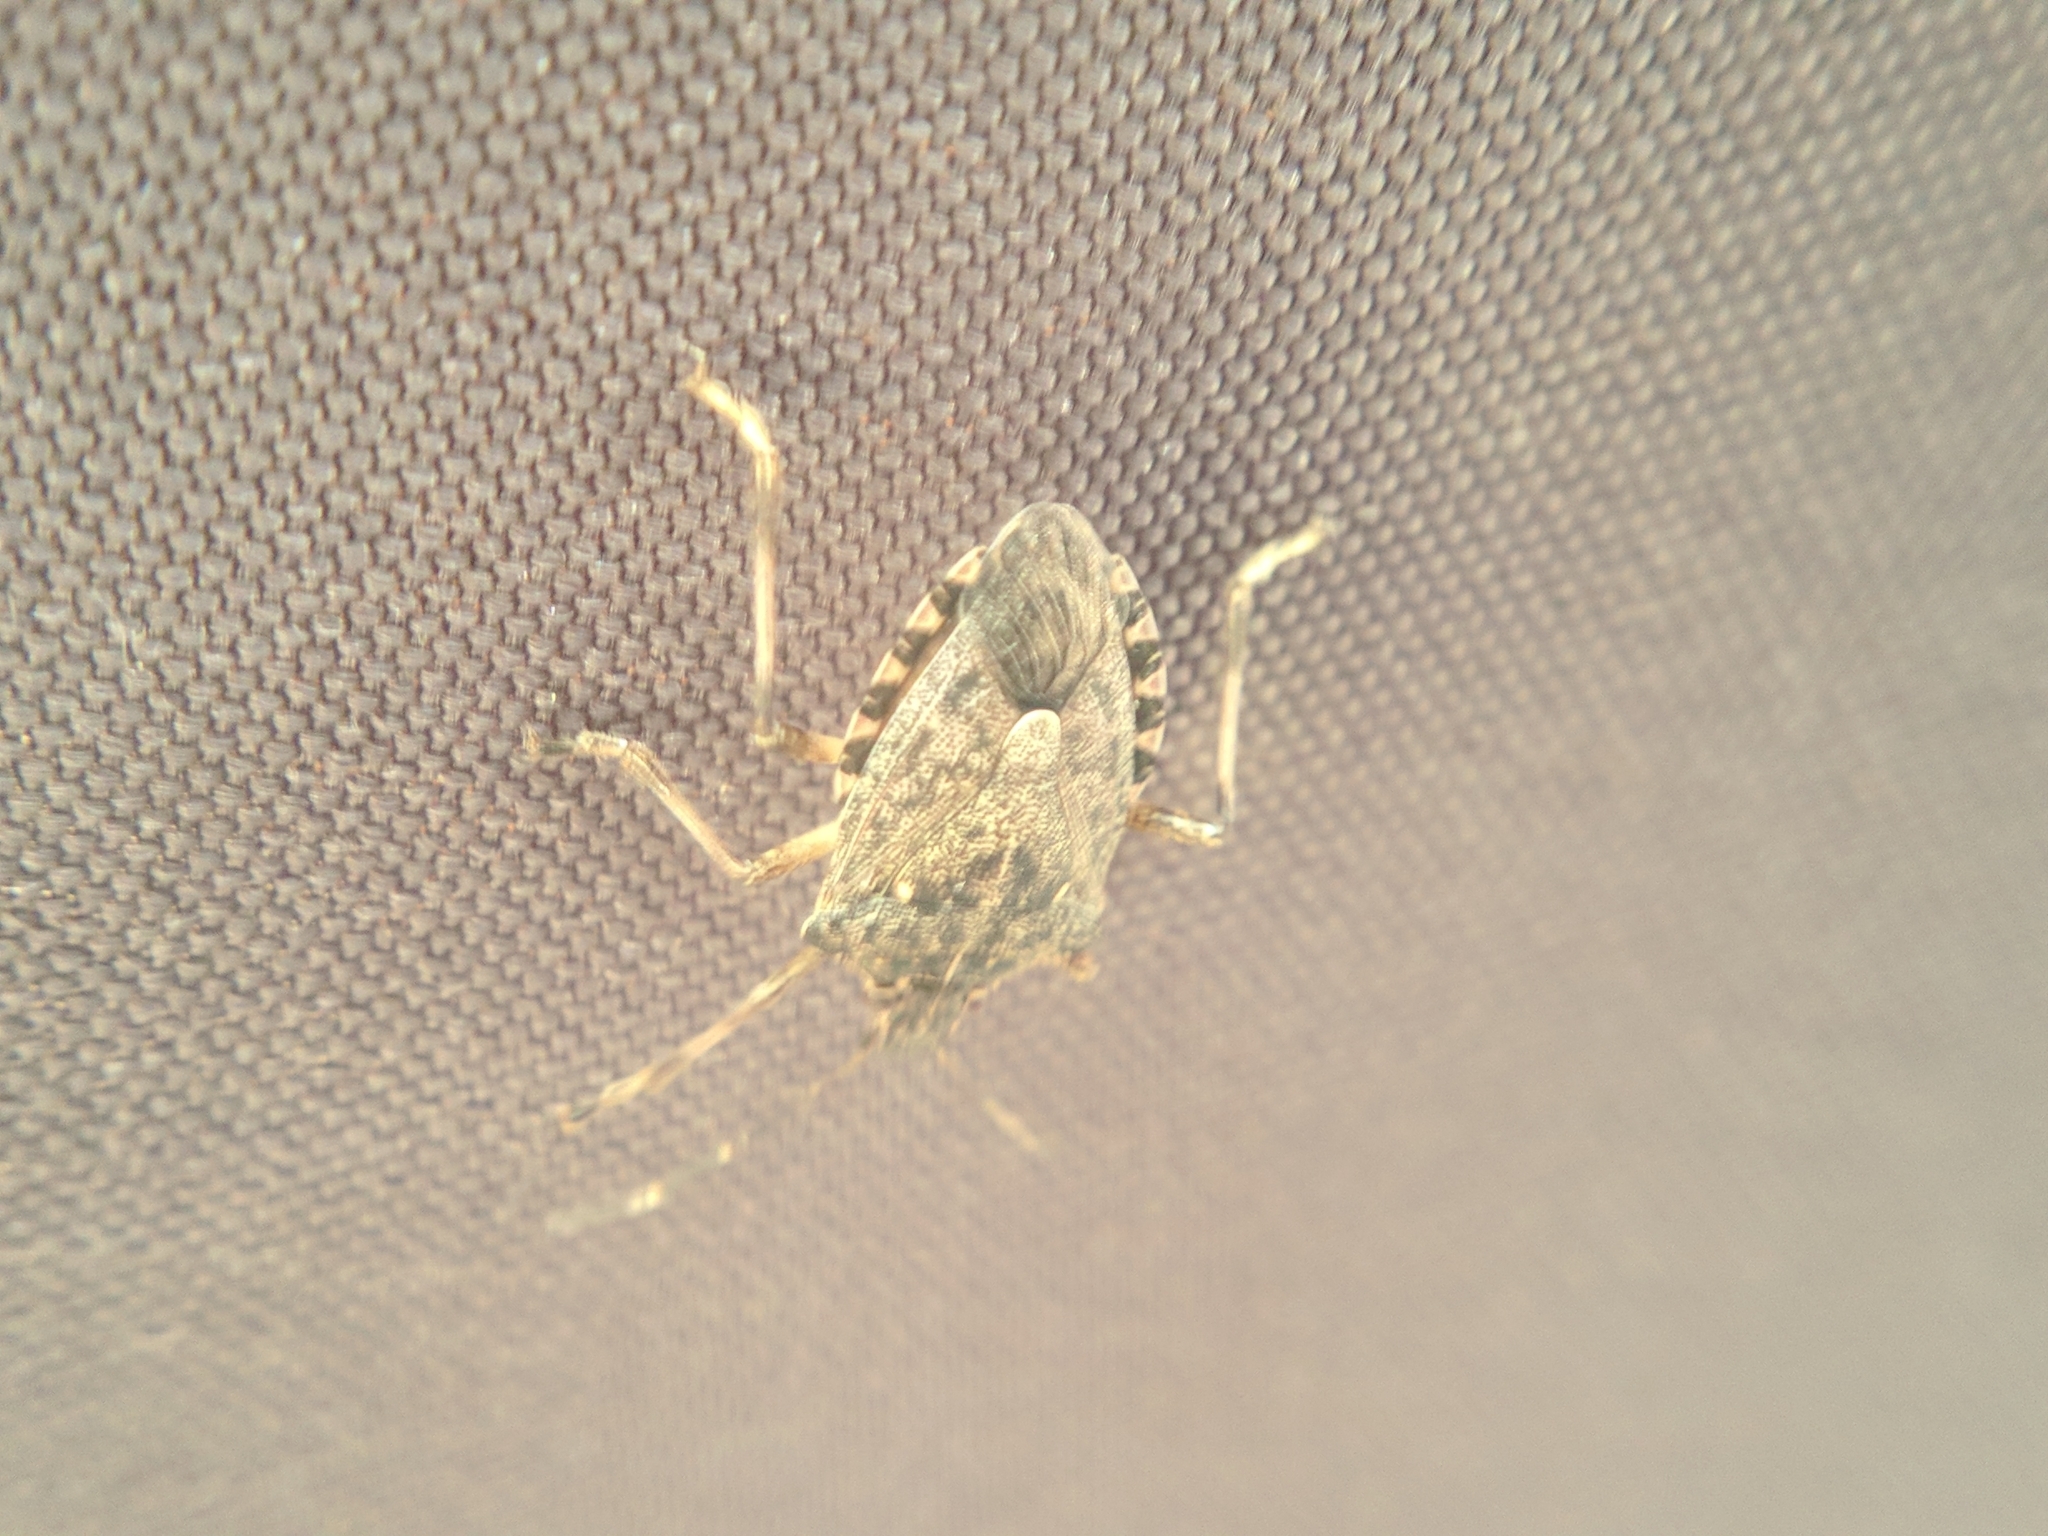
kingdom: Animalia
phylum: Arthropoda
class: Insecta
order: Hemiptera
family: Pentatomidae
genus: Rhaphigaster
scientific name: Rhaphigaster nebulosa
